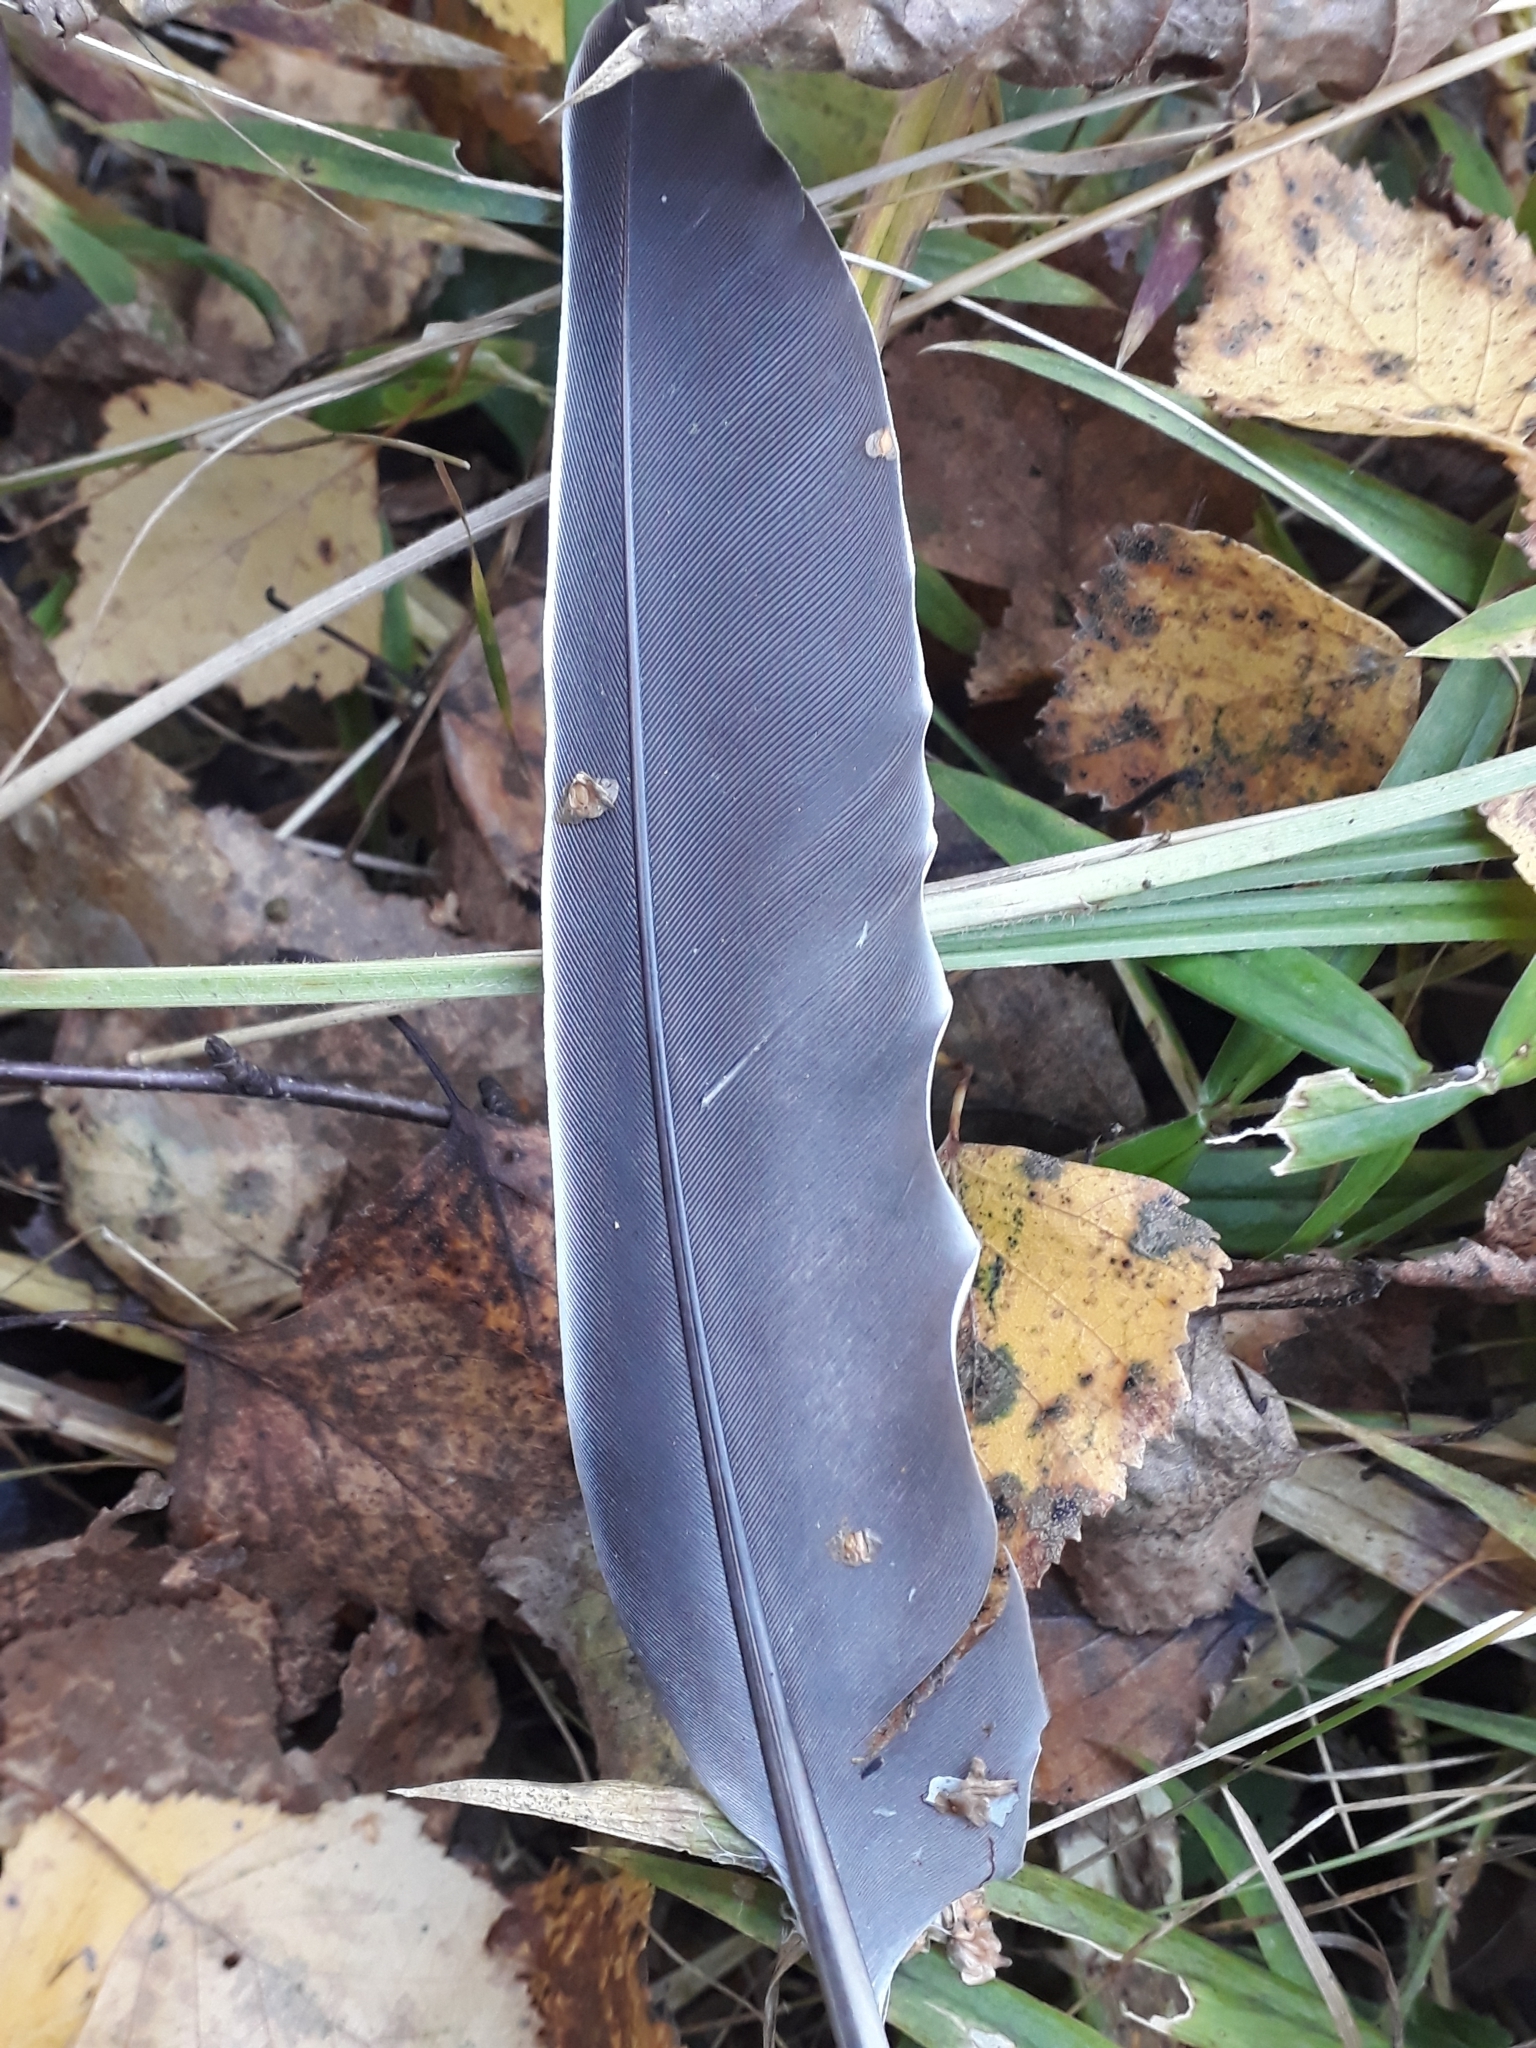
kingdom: Animalia
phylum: Chordata
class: Aves
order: Columbiformes
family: Columbidae
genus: Columba
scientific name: Columba palumbus
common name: Common wood pigeon
